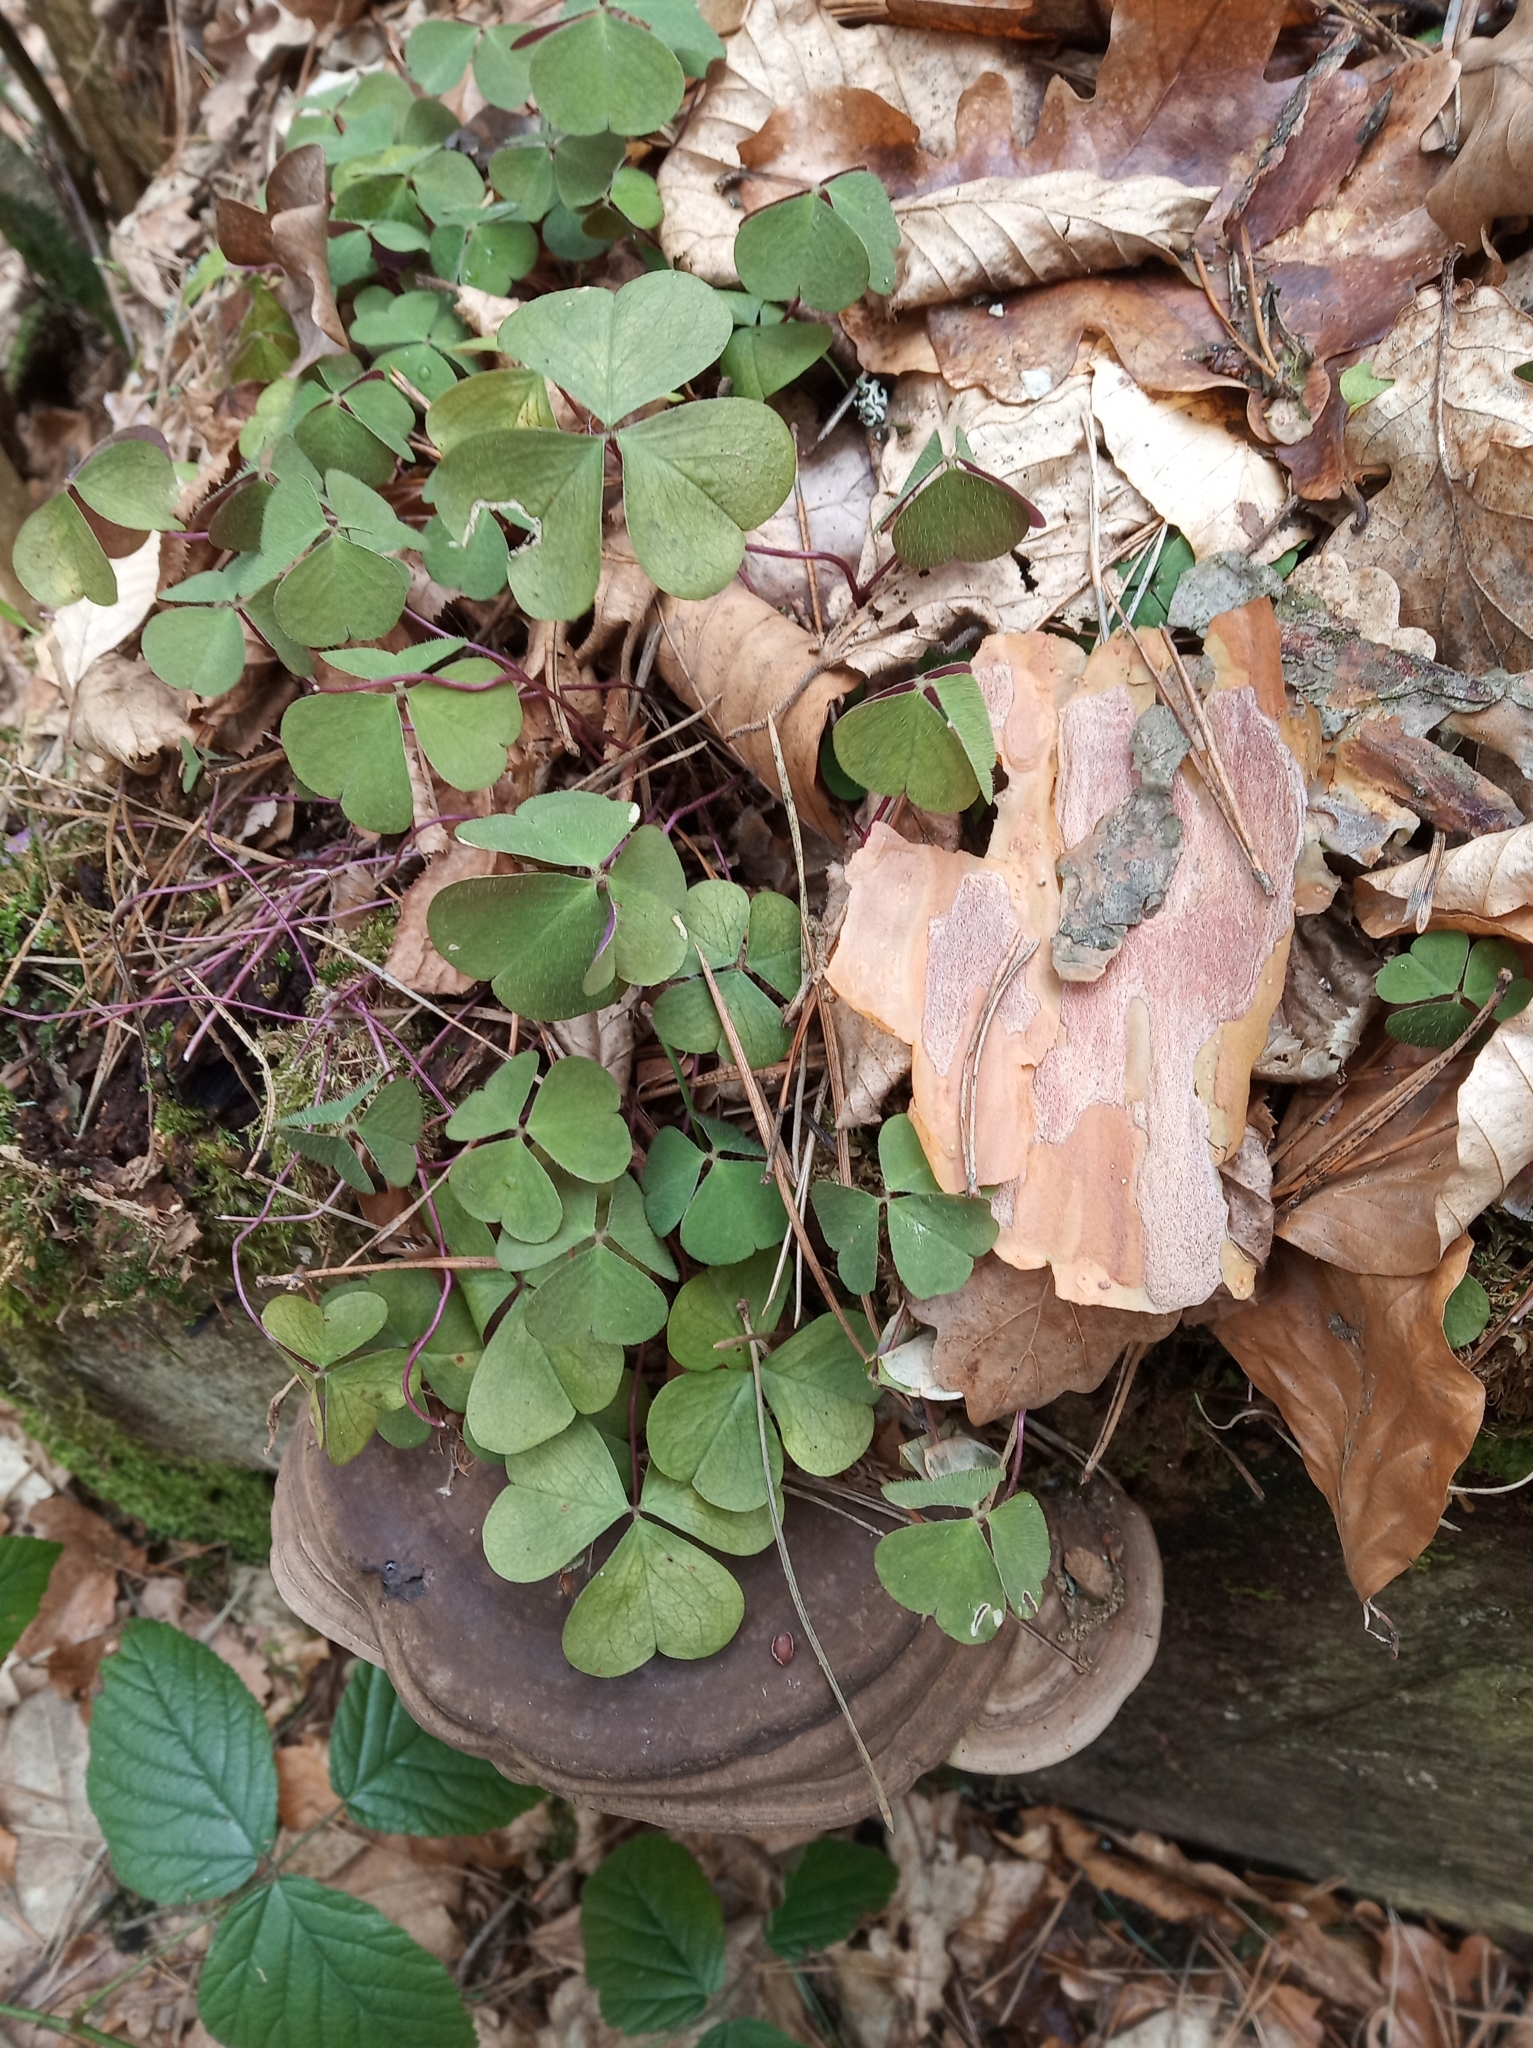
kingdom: Plantae
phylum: Tracheophyta
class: Magnoliopsida
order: Oxalidales
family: Oxalidaceae
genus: Oxalis
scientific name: Oxalis acetosella
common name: Wood-sorrel
